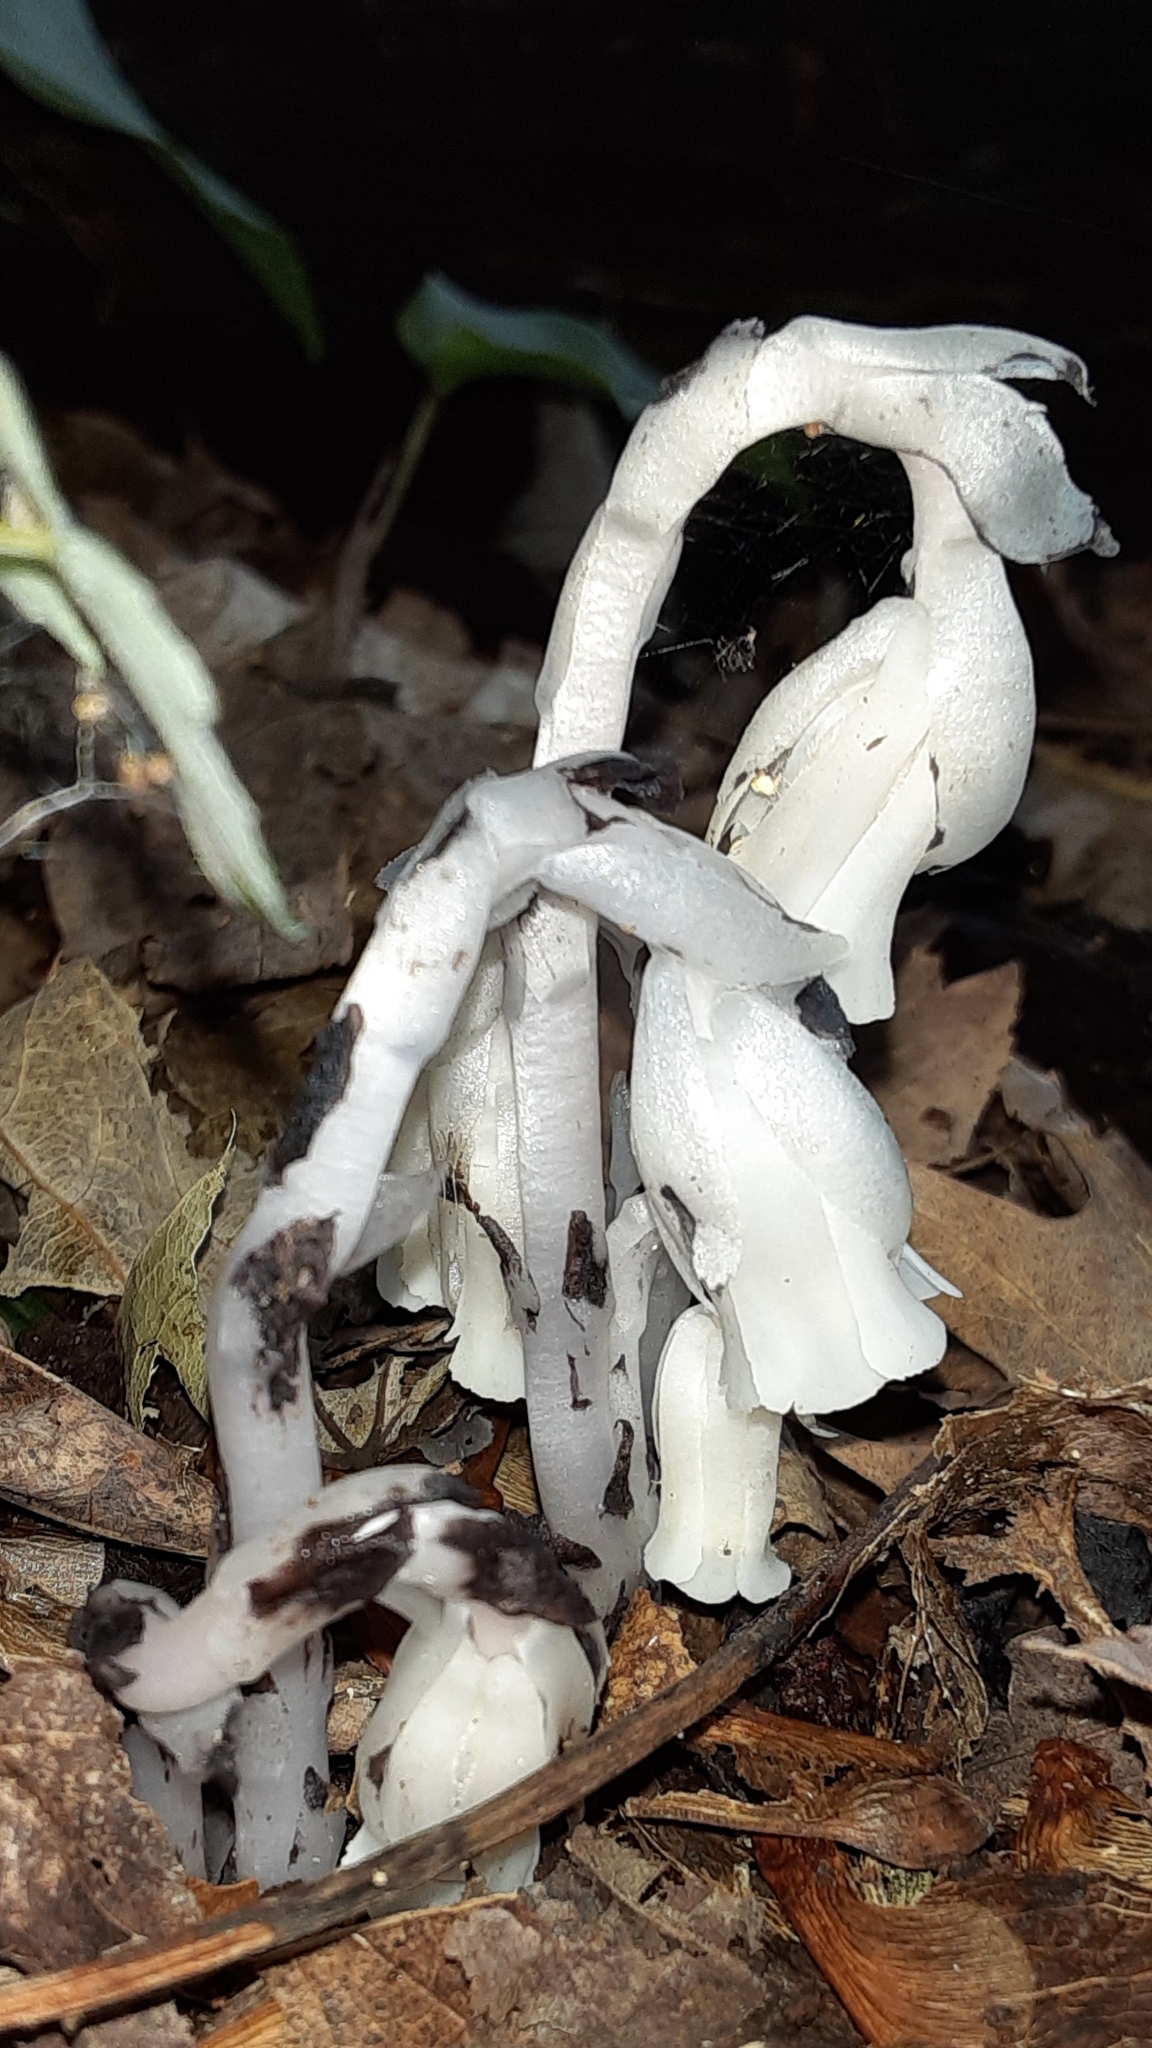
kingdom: Plantae
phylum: Tracheophyta
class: Magnoliopsida
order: Ericales
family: Ericaceae
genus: Monotropa
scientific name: Monotropa uniflora
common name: Convulsion root
